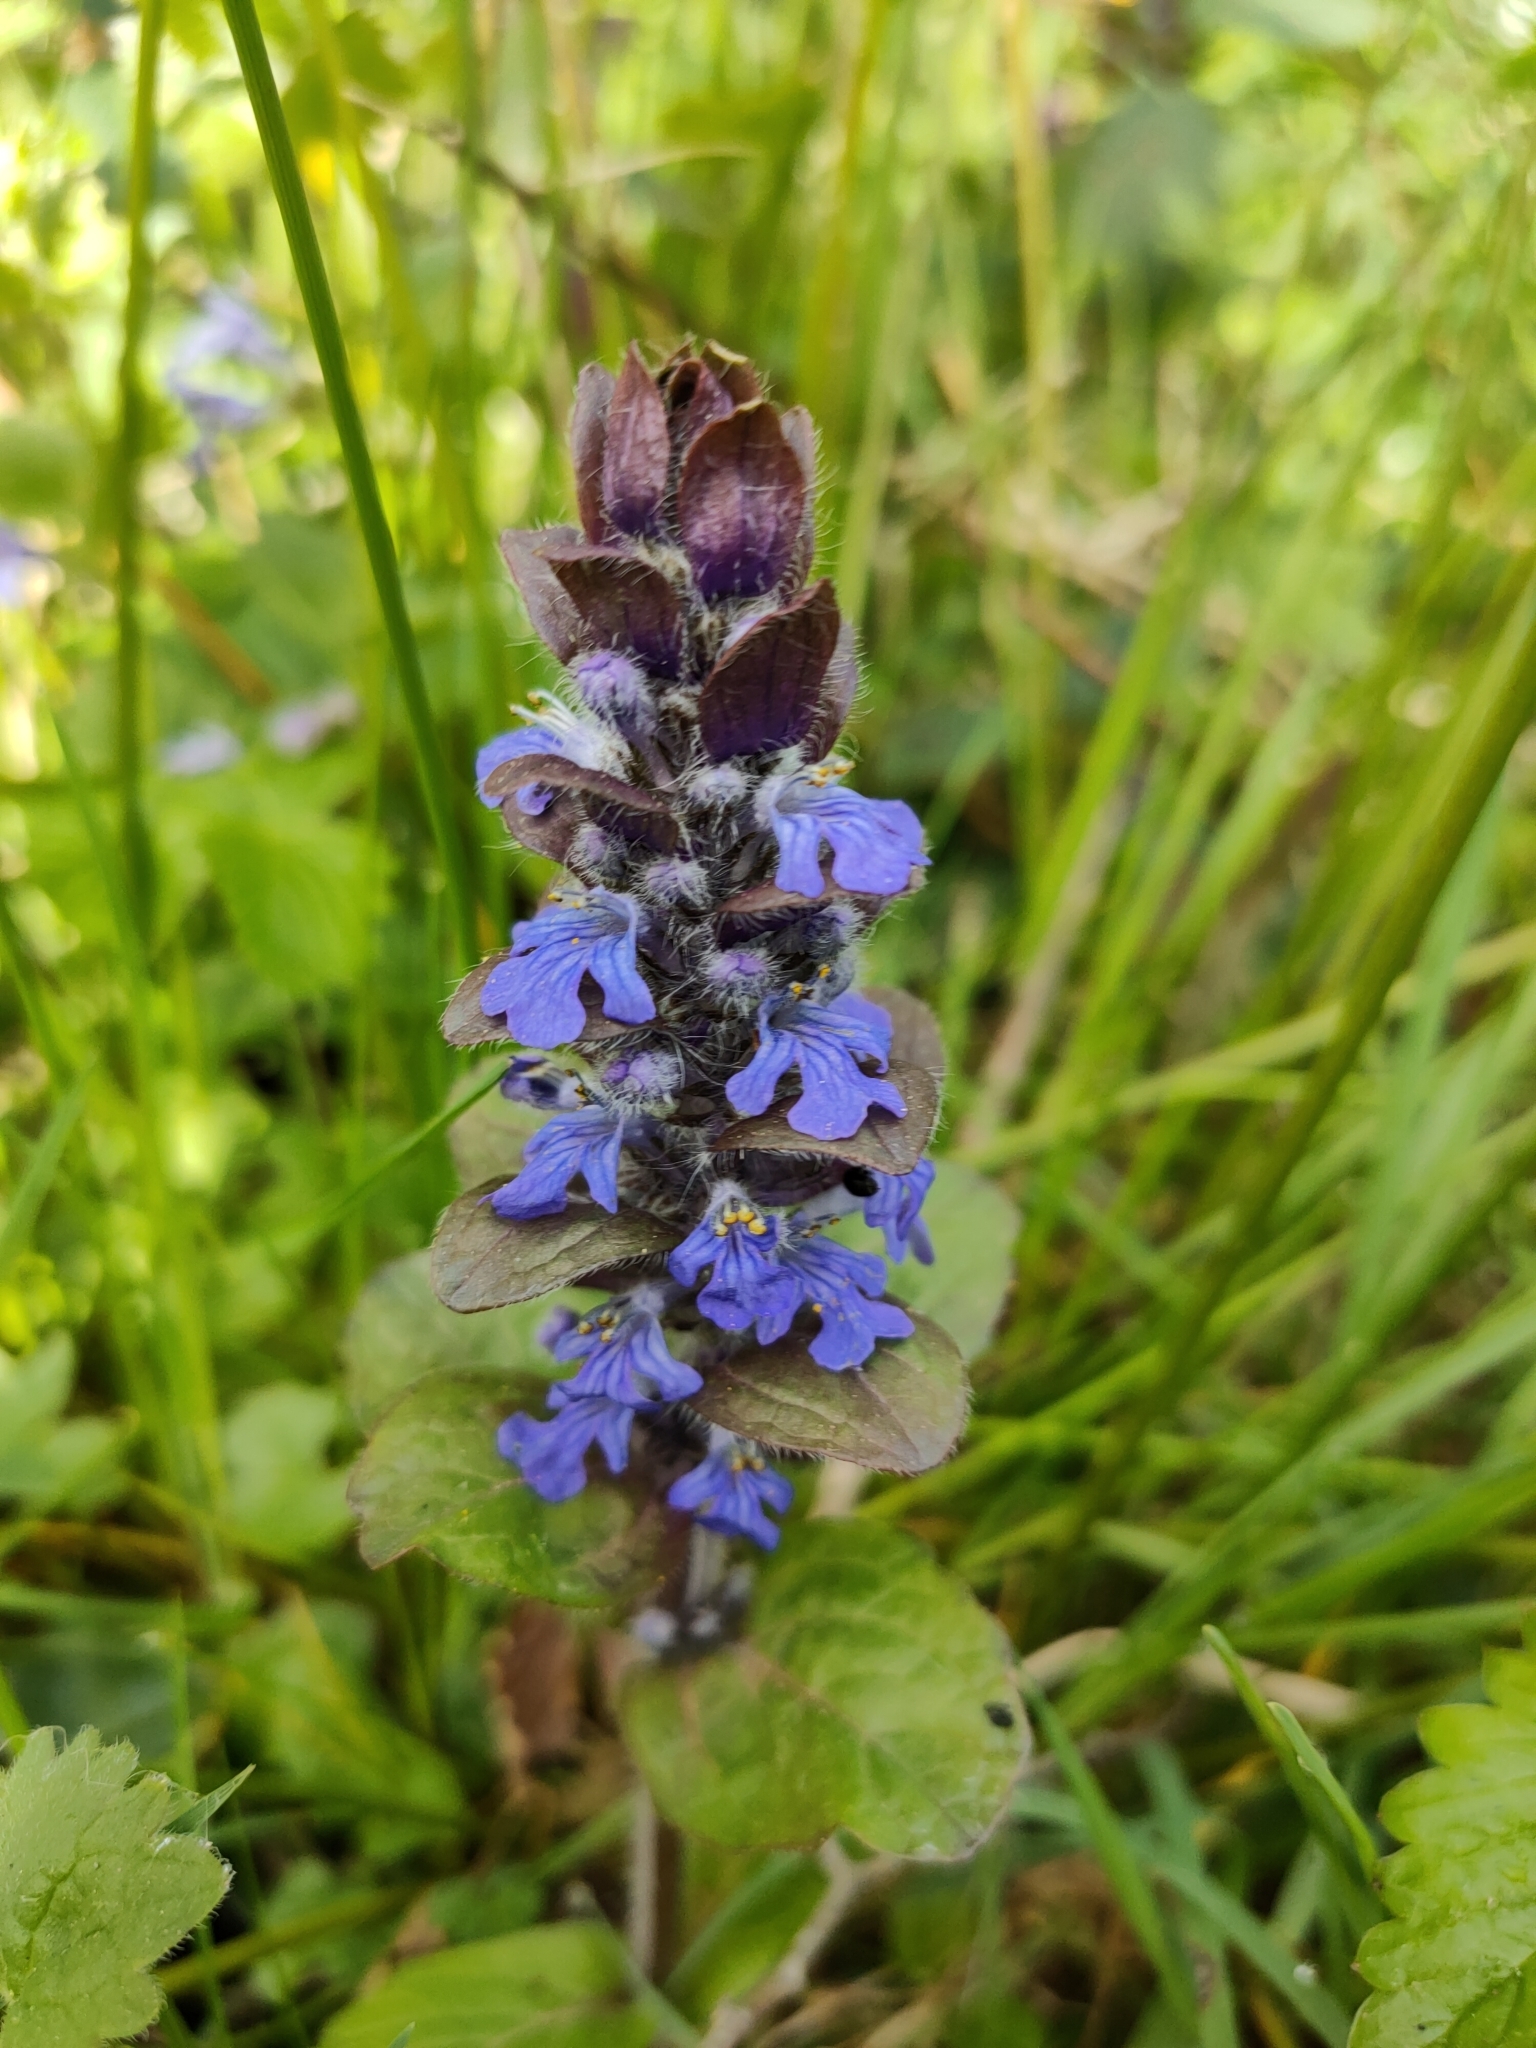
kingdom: Plantae
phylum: Tracheophyta
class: Magnoliopsida
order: Lamiales
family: Lamiaceae
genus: Ajuga
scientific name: Ajuga reptans
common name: Bugle
